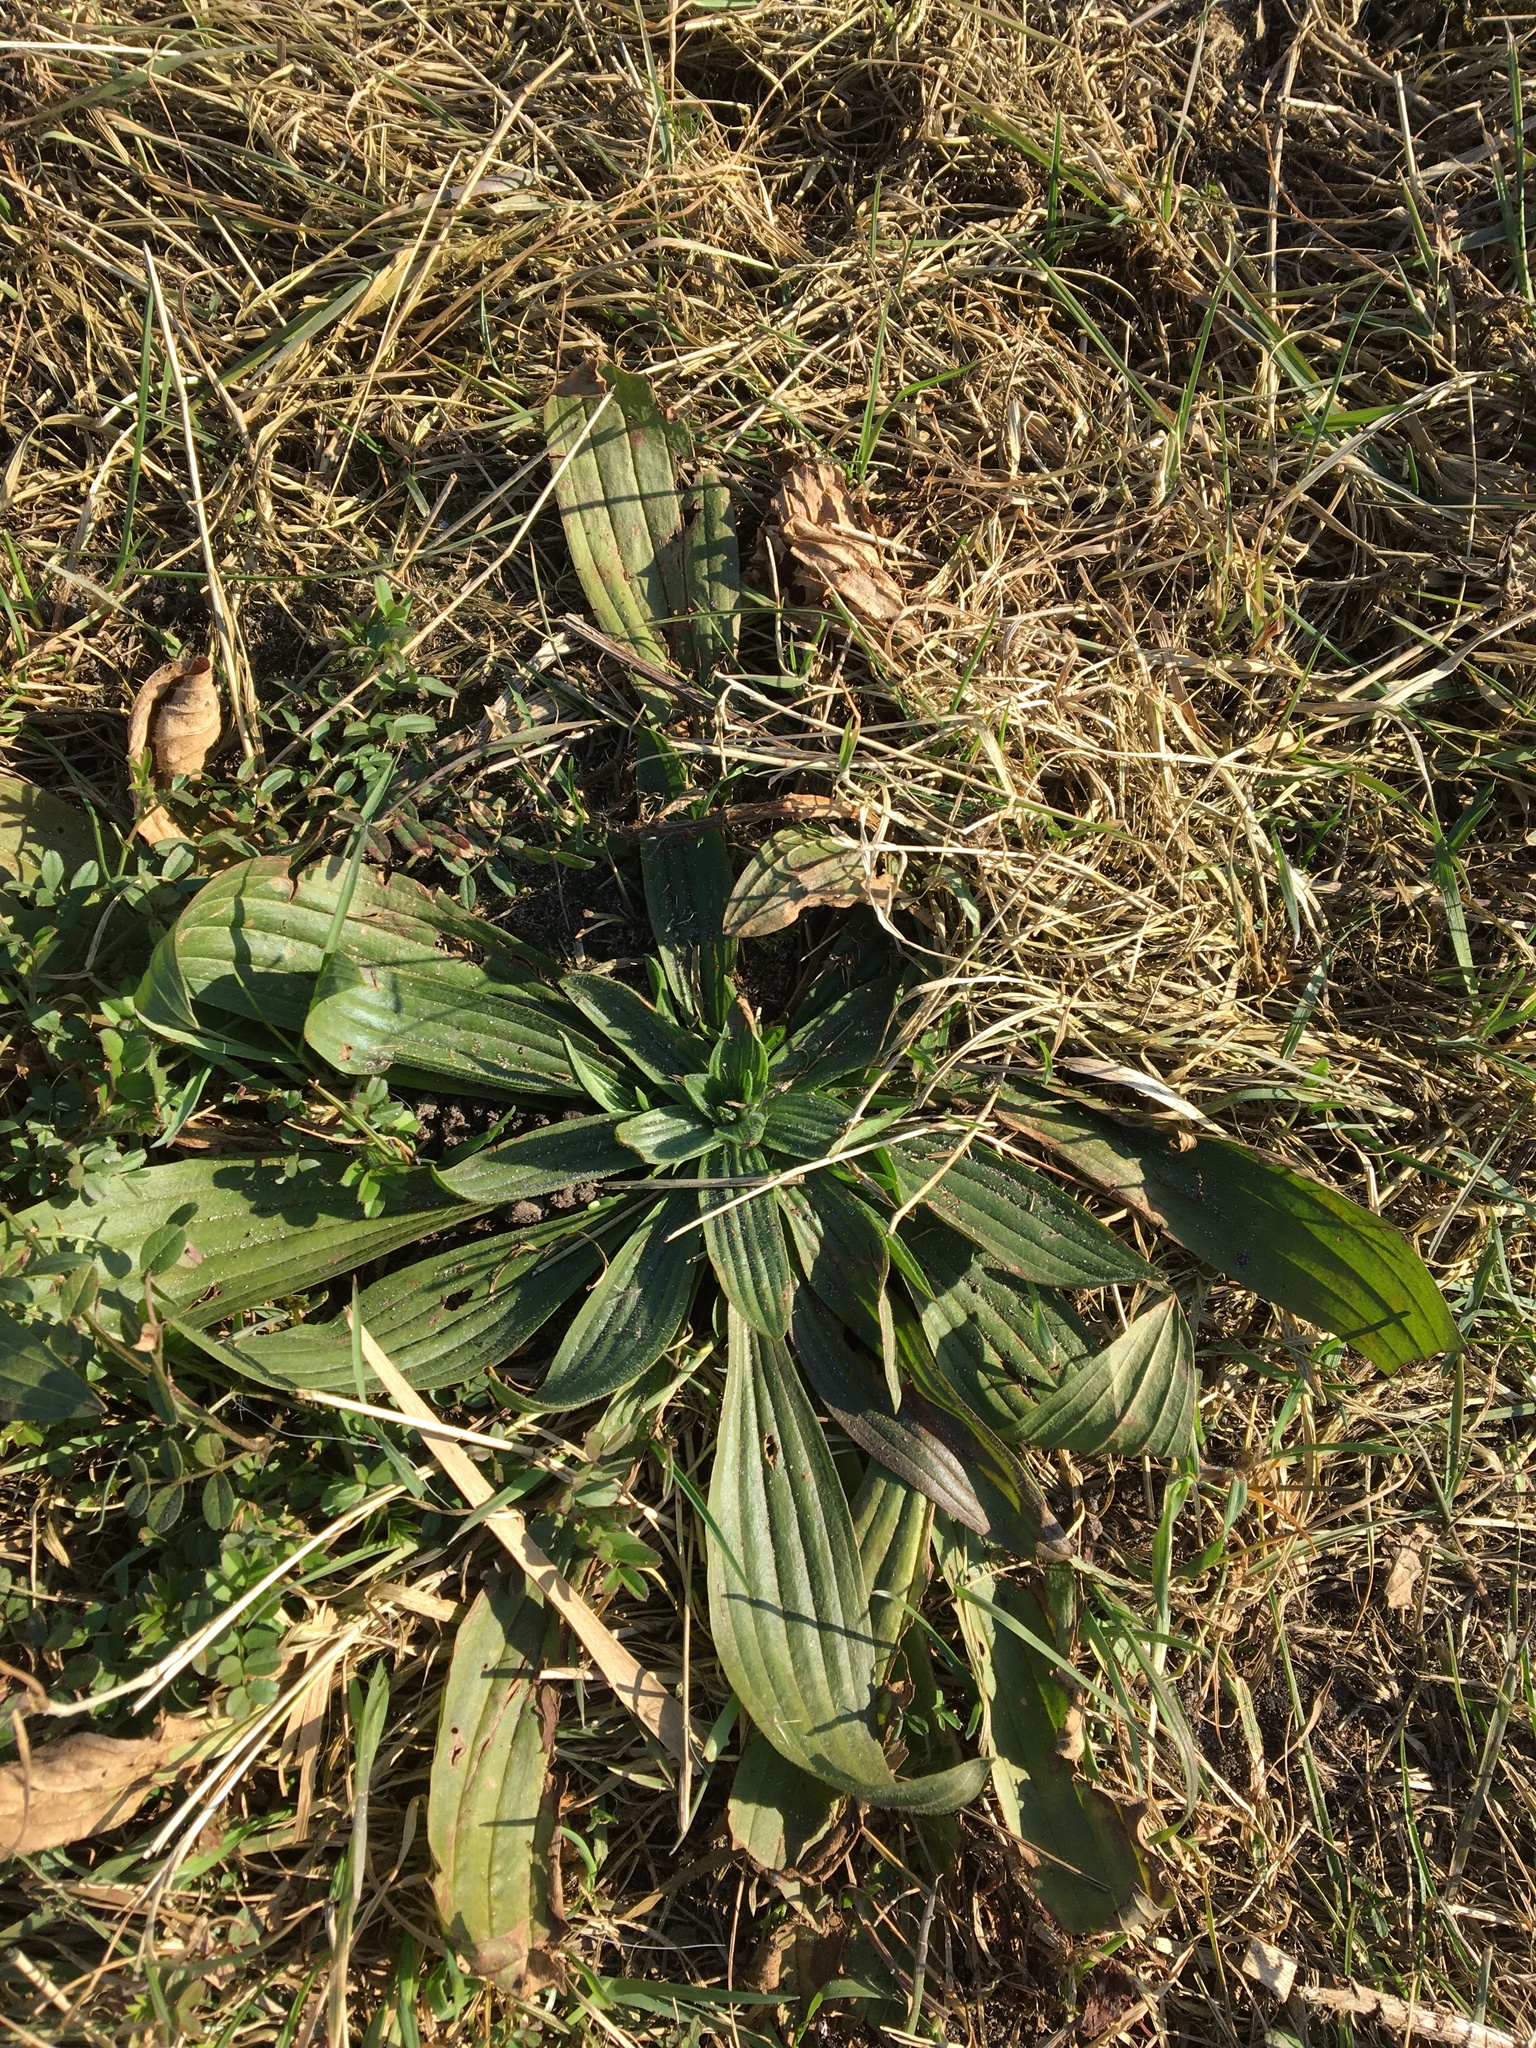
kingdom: Plantae
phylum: Tracheophyta
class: Magnoliopsida
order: Lamiales
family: Plantaginaceae
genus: Plantago
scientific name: Plantago lanceolata
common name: Ribwort plantain
